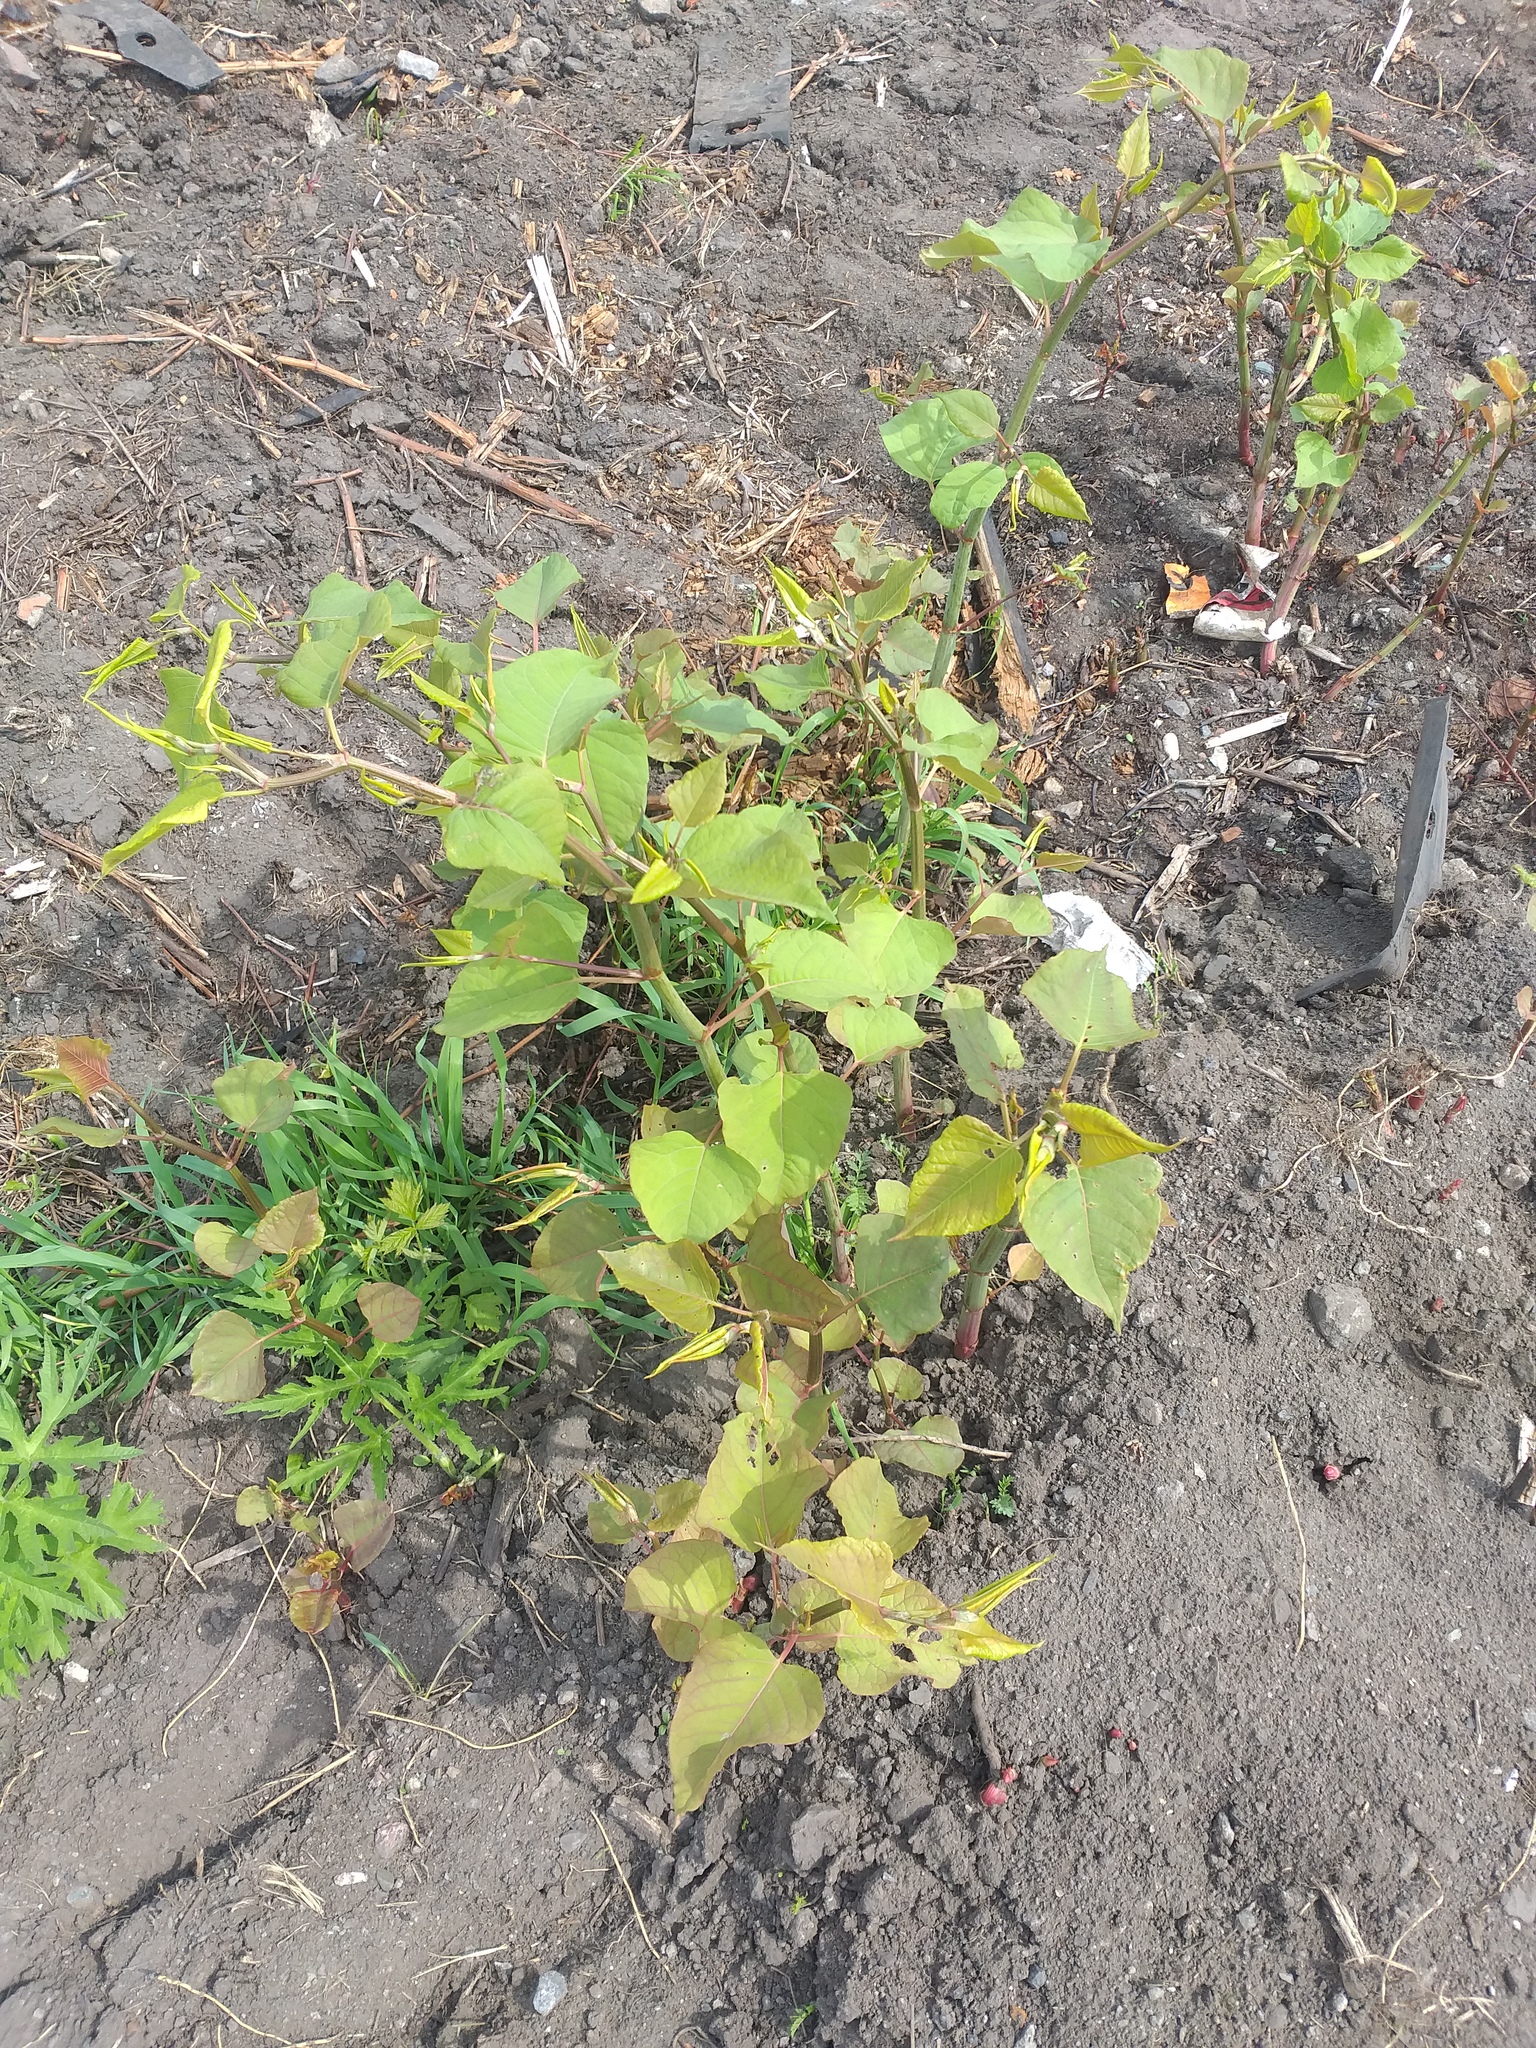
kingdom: Plantae
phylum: Tracheophyta
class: Magnoliopsida
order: Caryophyllales
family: Polygonaceae
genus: Reynoutria
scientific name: Reynoutria bohemica
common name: Bohemian knotweed
